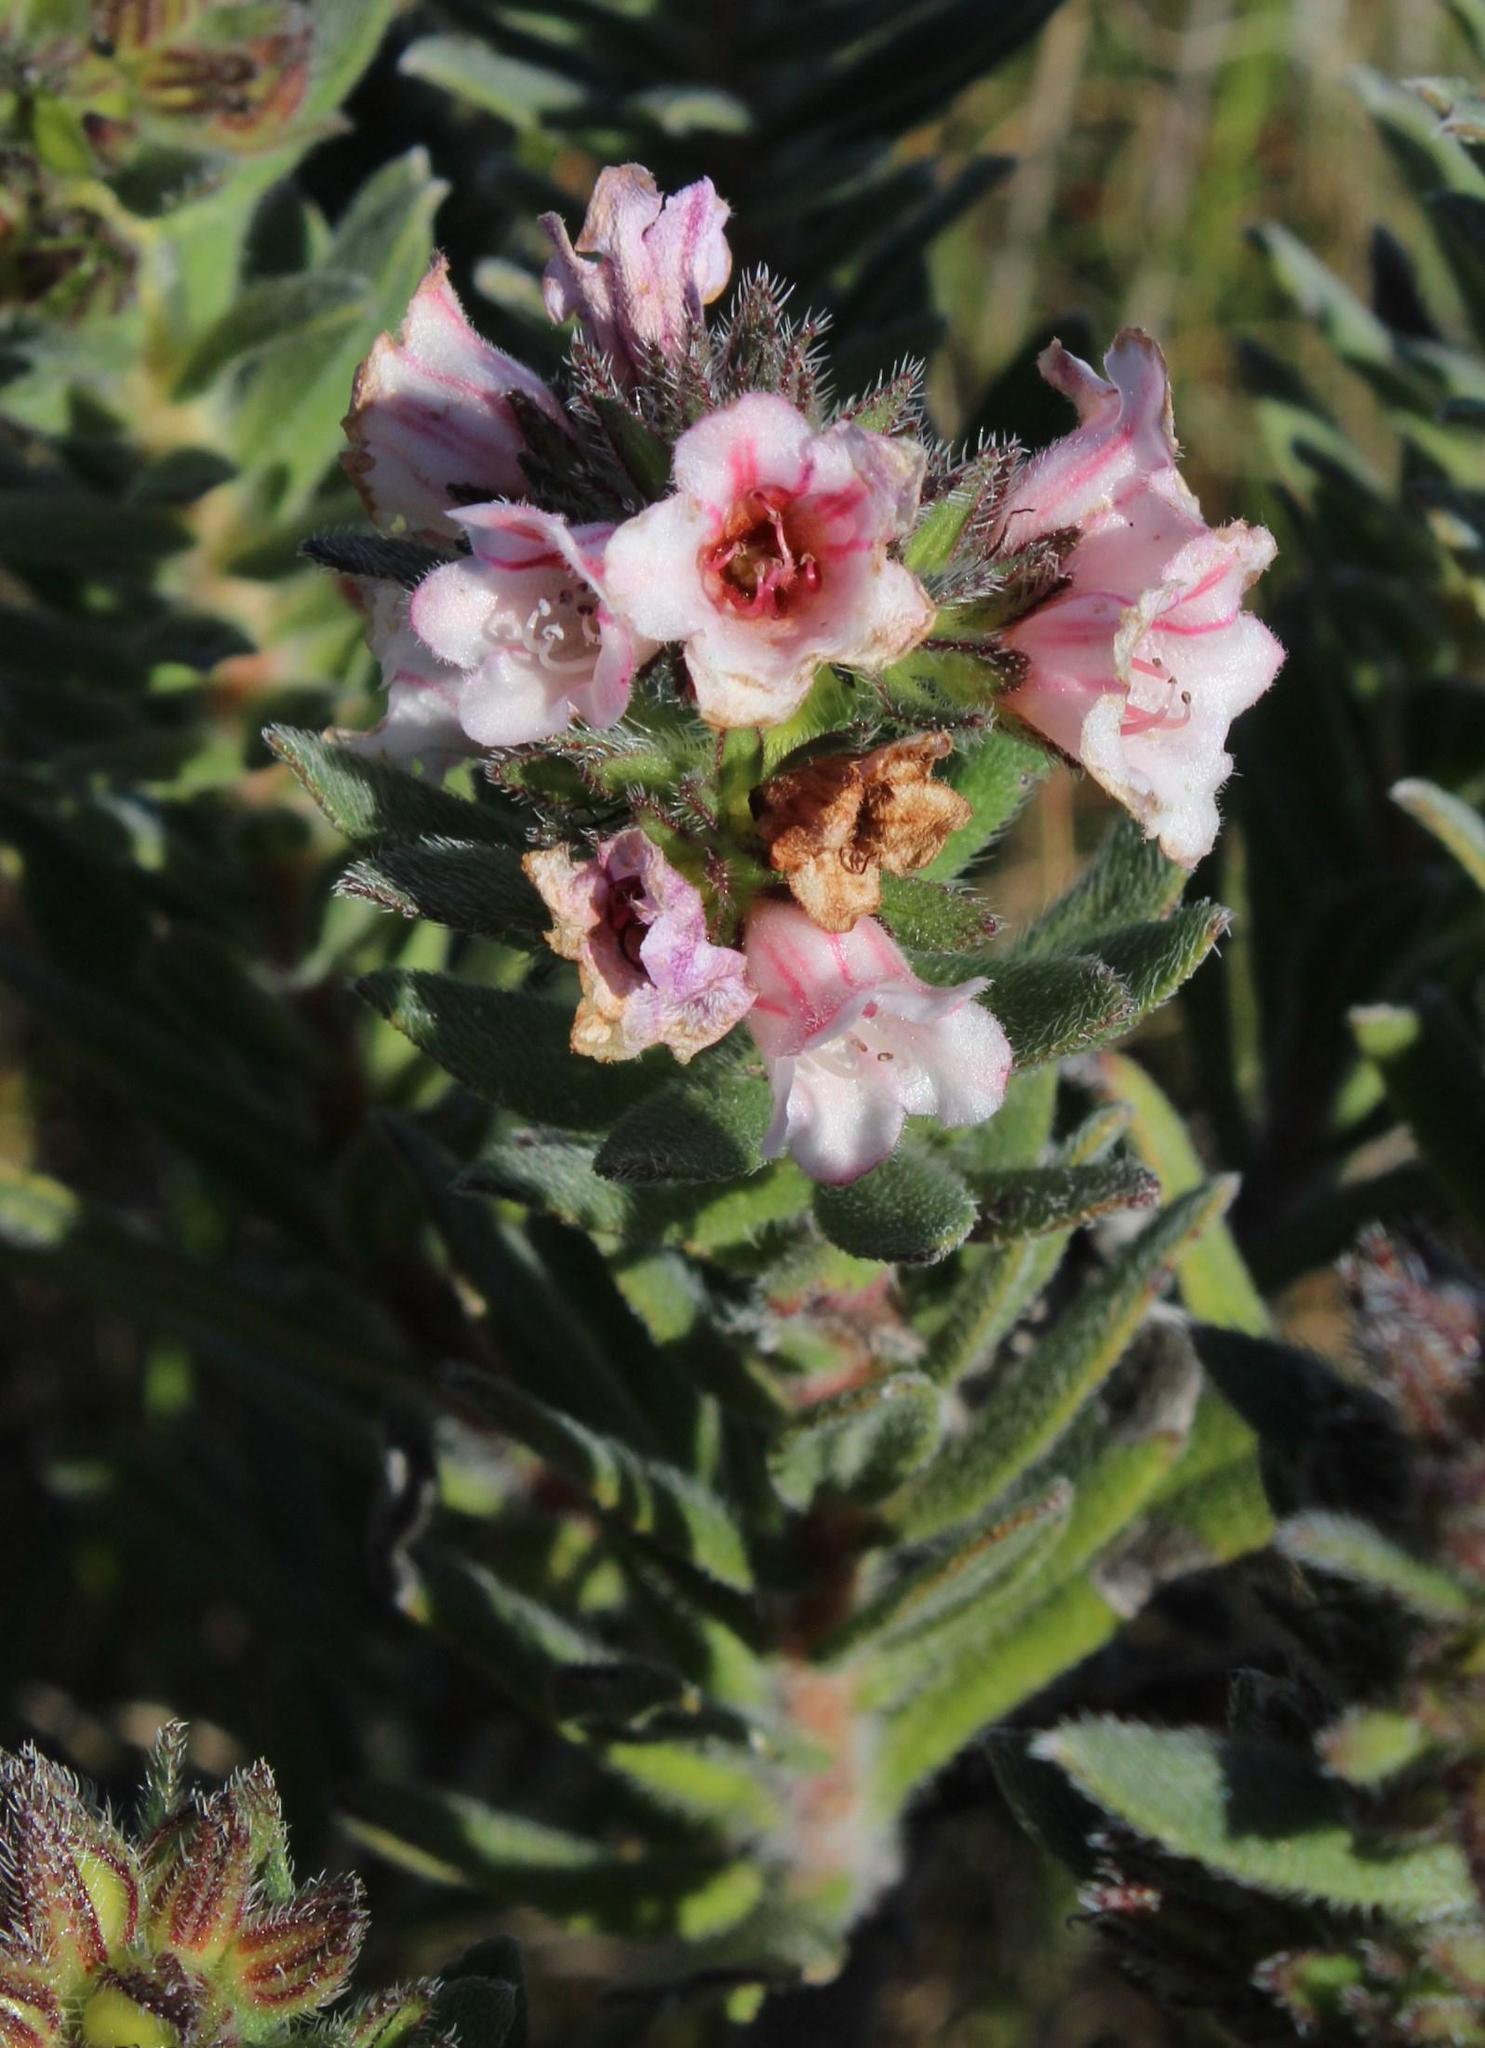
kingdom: Plantae
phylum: Tracheophyta
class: Magnoliopsida
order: Boraginales
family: Boraginaceae
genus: Lobostemon
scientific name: Lobostemon curvifolius
